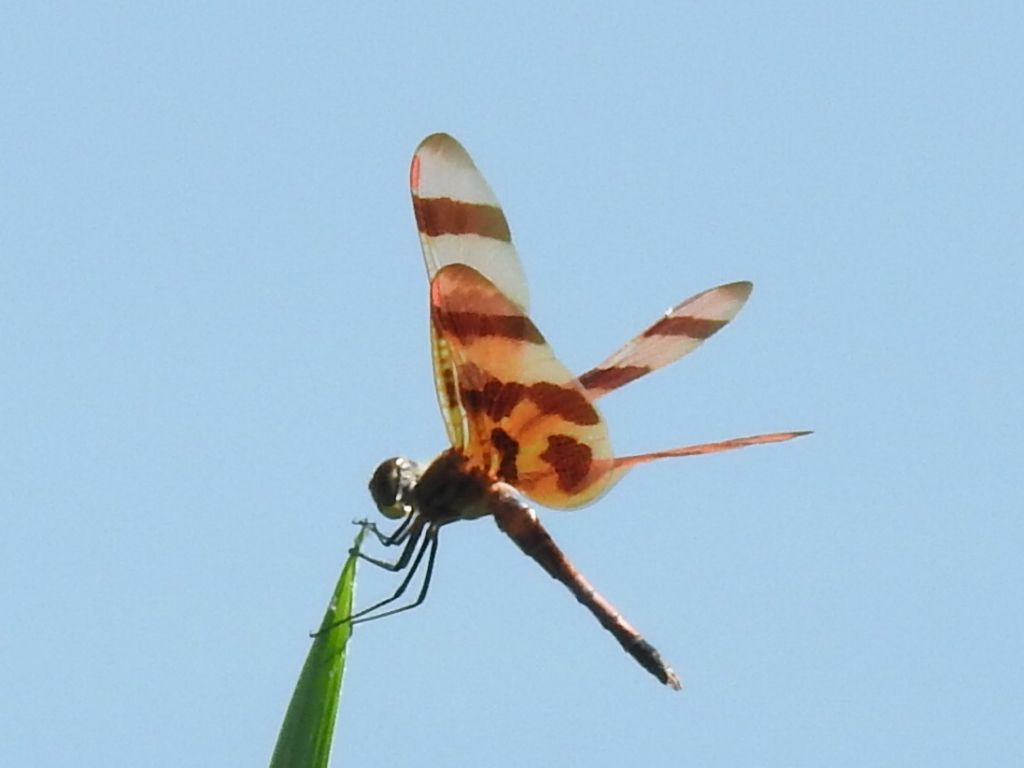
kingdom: Animalia
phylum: Arthropoda
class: Insecta
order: Odonata
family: Libellulidae
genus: Celithemis
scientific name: Celithemis eponina
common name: Halloween pennant
